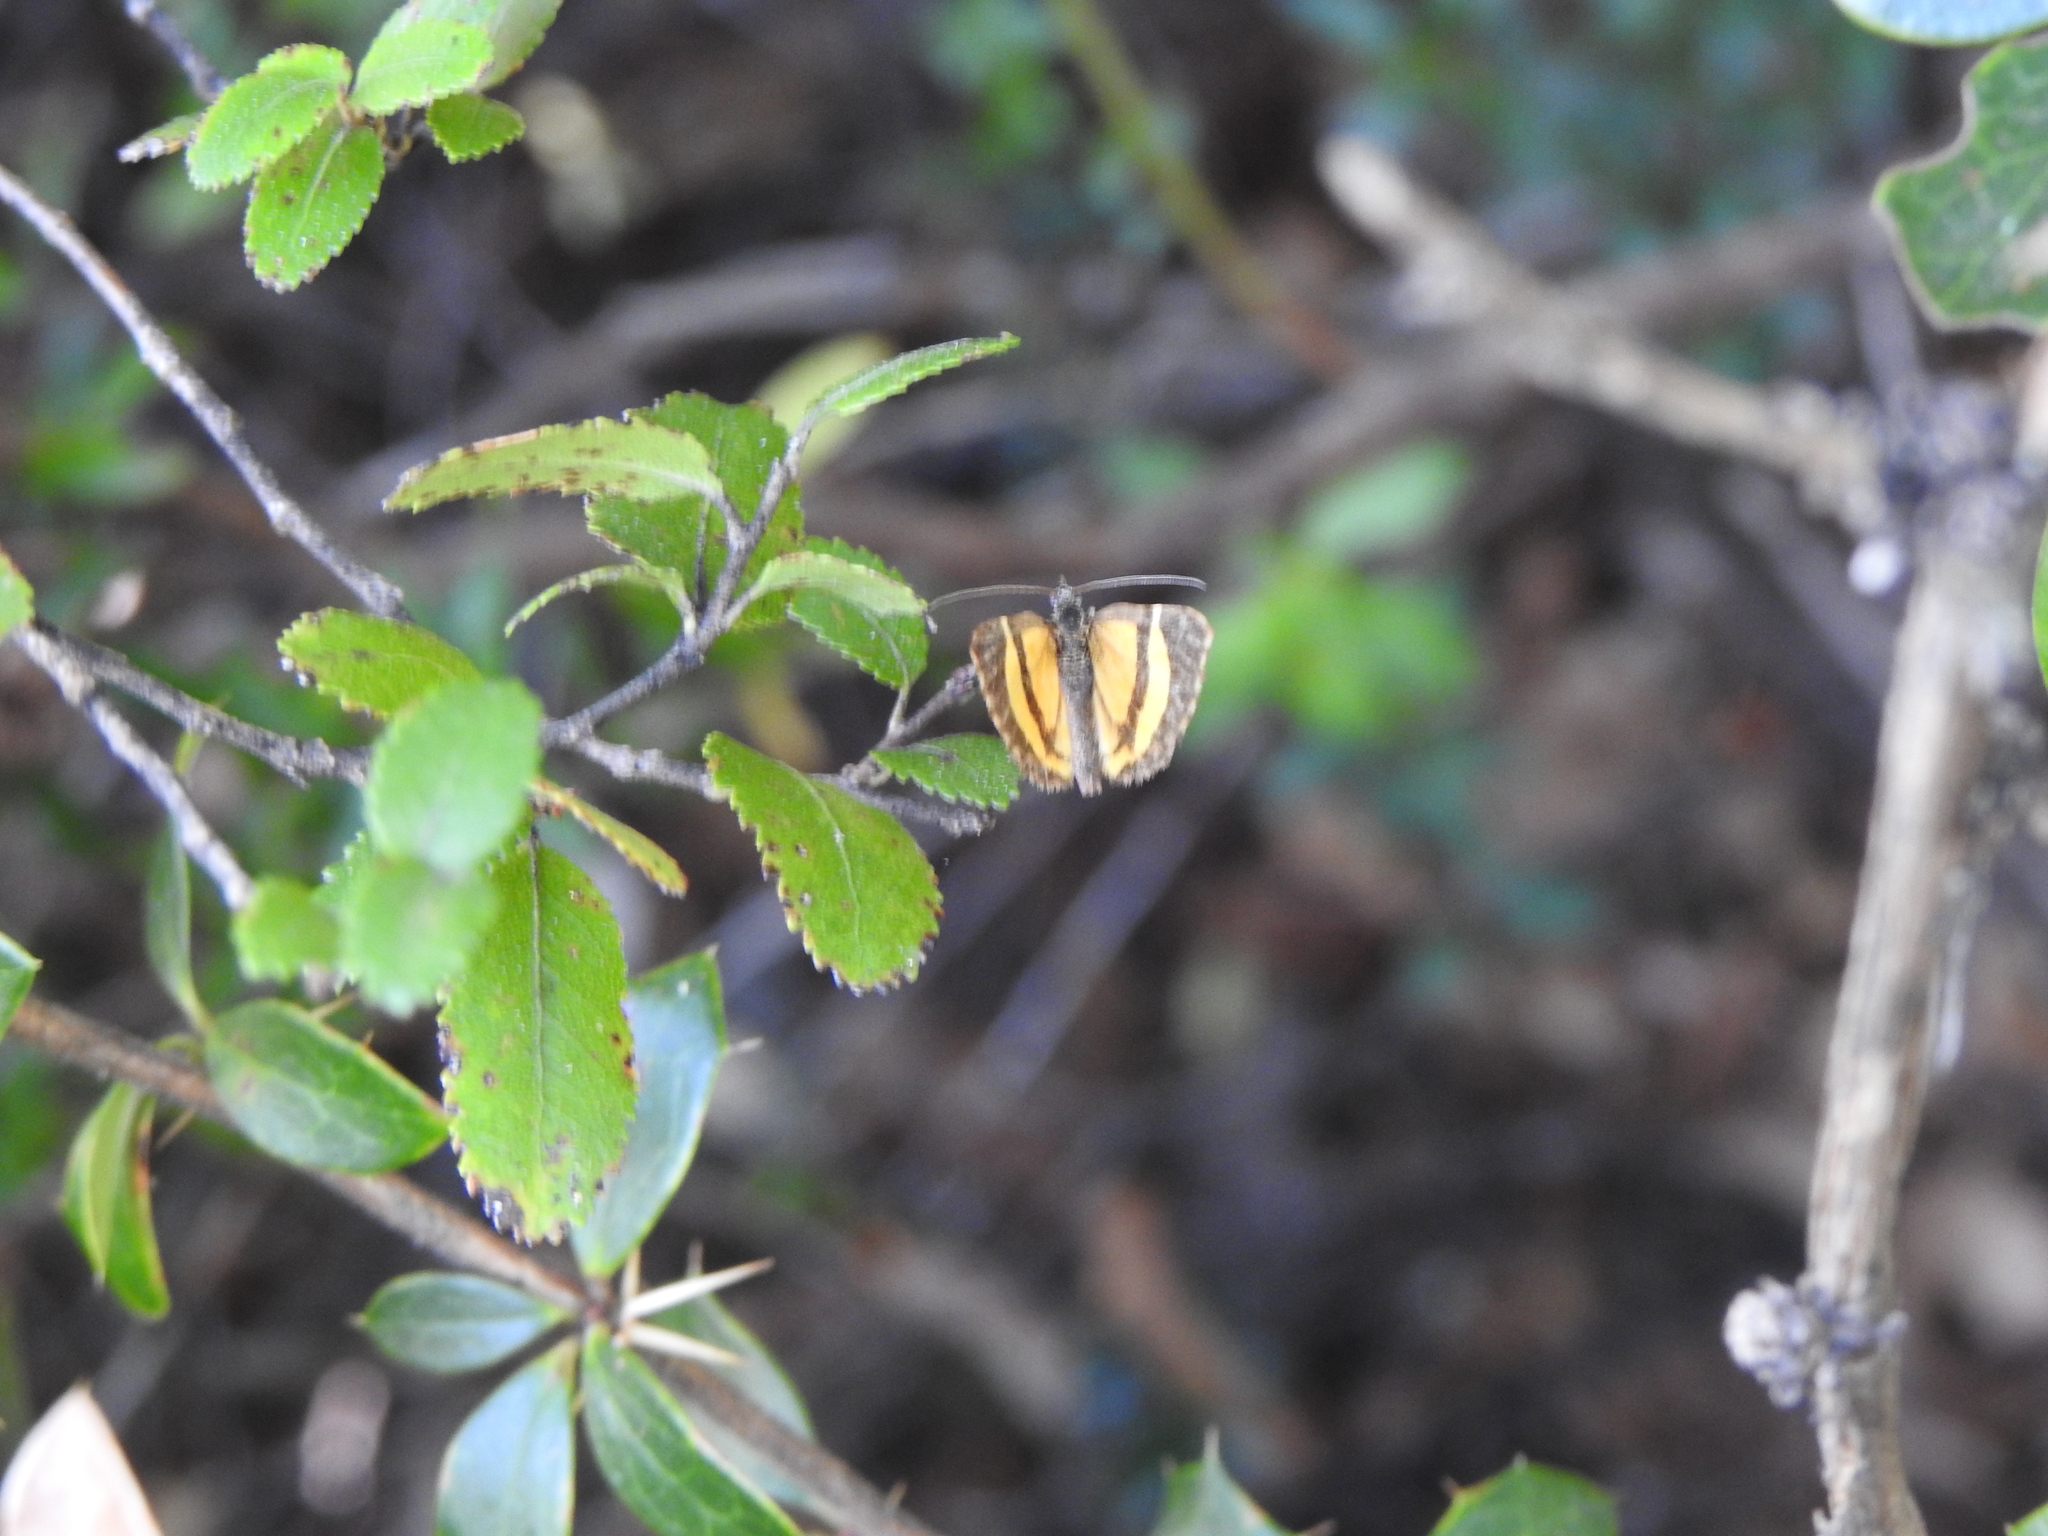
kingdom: Animalia
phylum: Arthropoda
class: Insecta
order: Lepidoptera
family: Geometridae
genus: Hagnagora
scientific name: Hagnagora vittata
